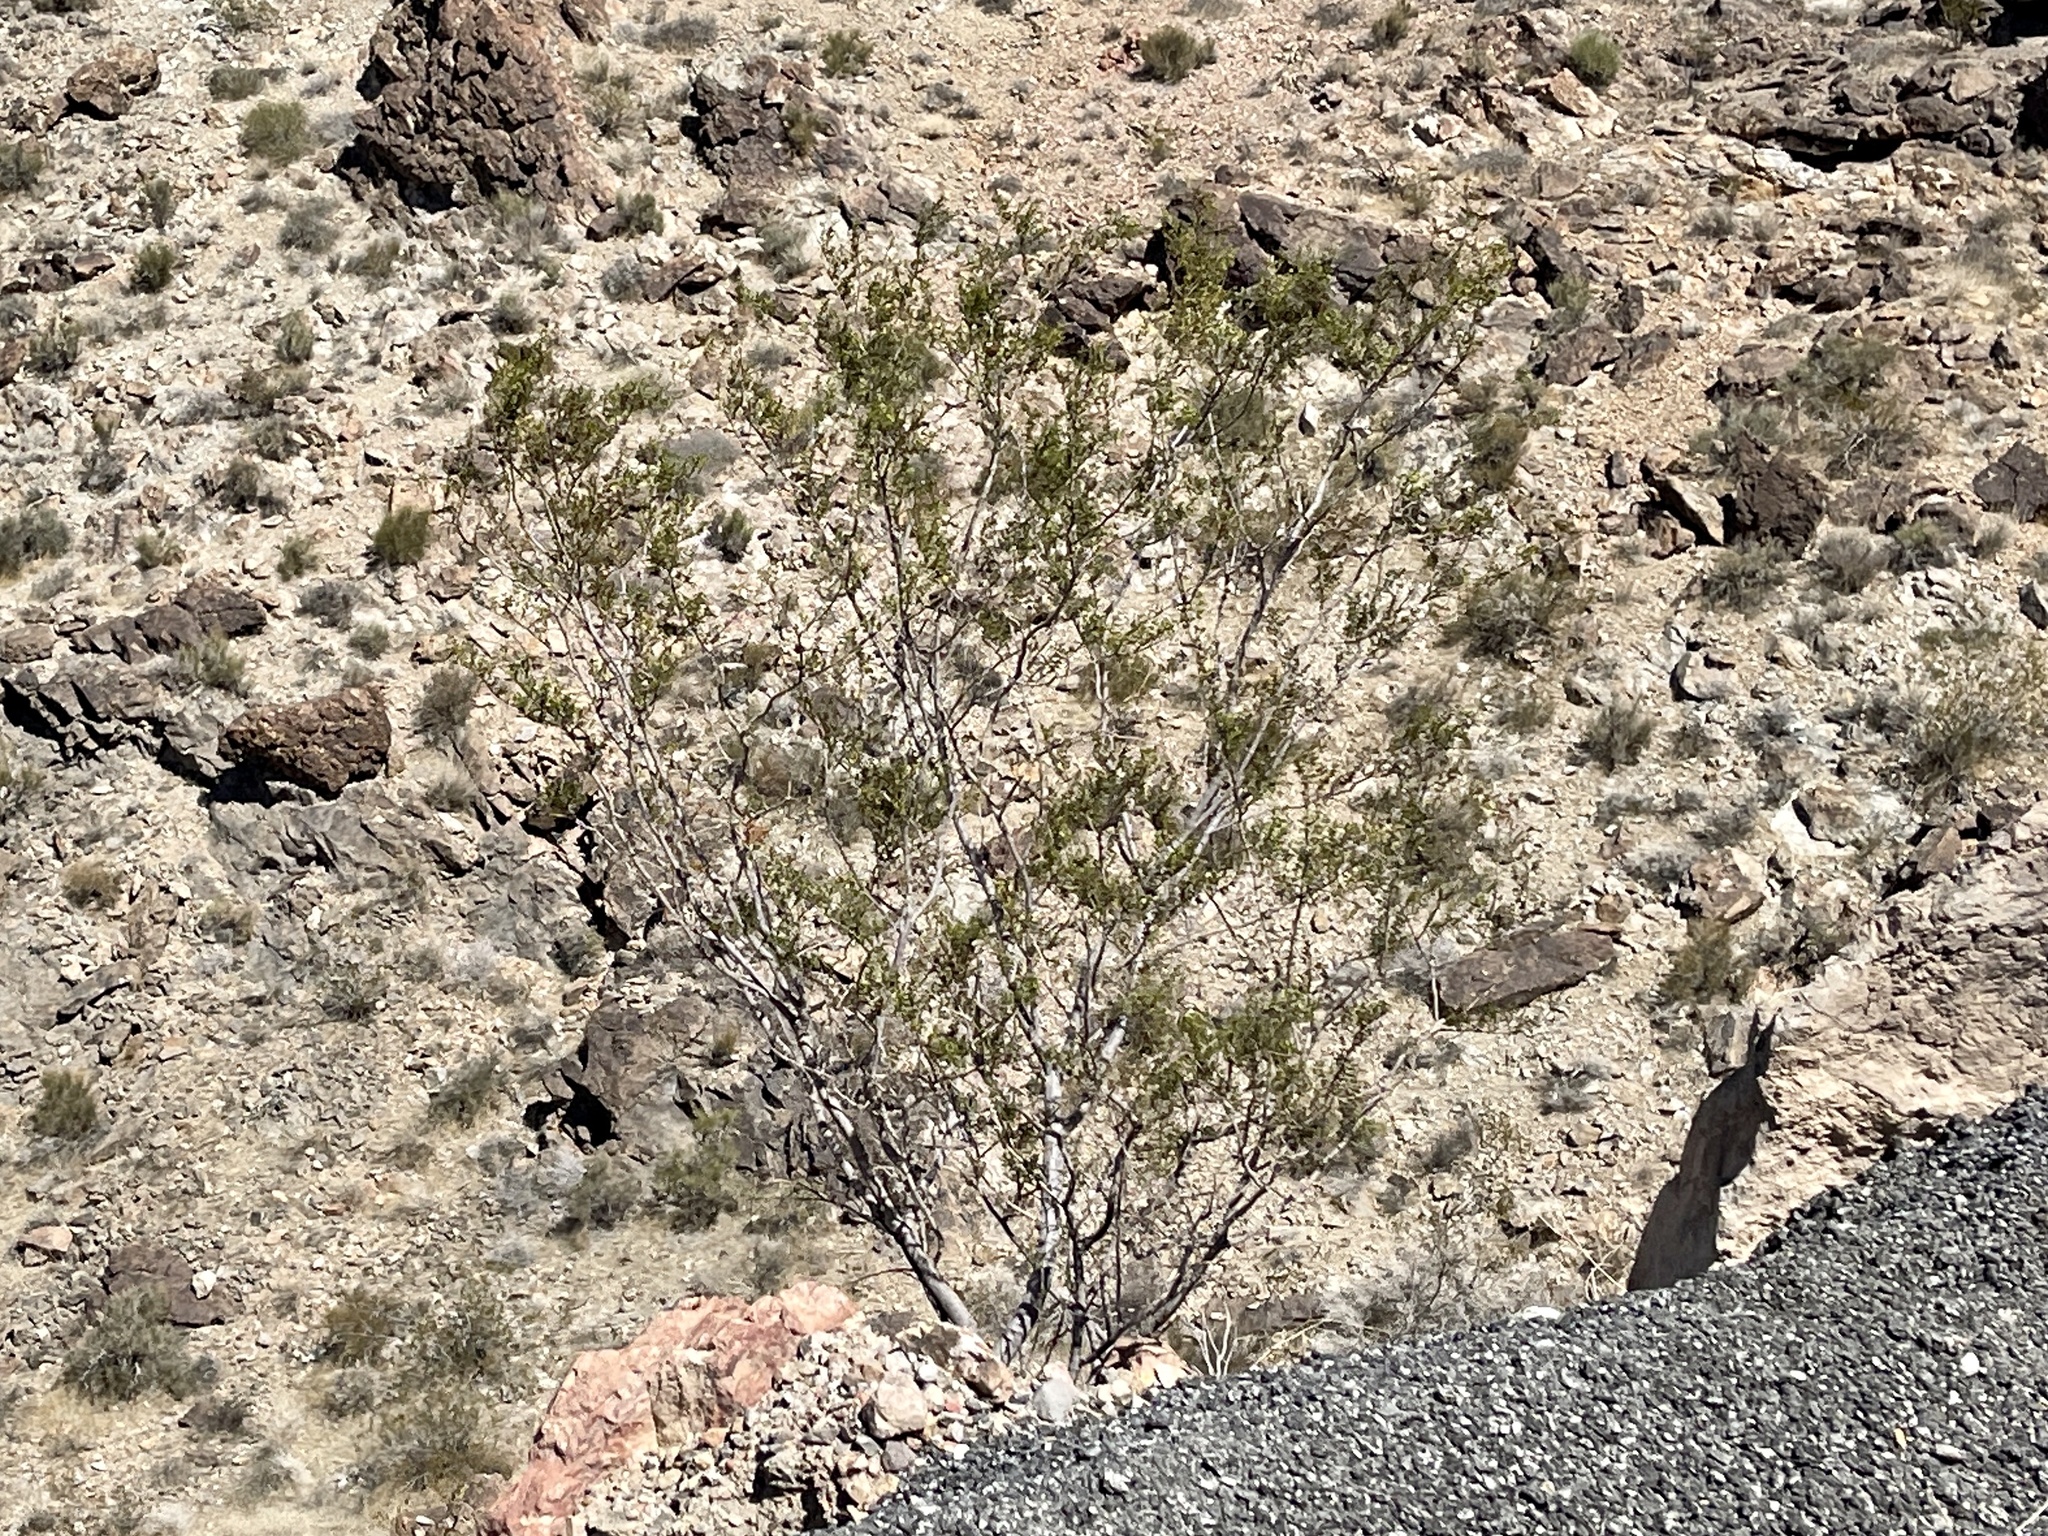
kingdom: Plantae
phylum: Tracheophyta
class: Magnoliopsida
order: Zygophyllales
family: Zygophyllaceae
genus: Larrea
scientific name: Larrea tridentata
